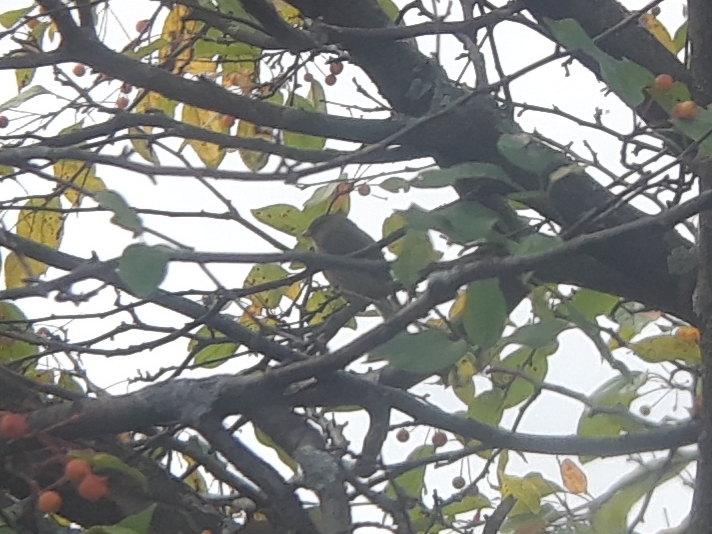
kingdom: Animalia
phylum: Chordata
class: Aves
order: Passeriformes
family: Passerellidae
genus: Junco
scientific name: Junco hyemalis
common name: Dark-eyed junco
